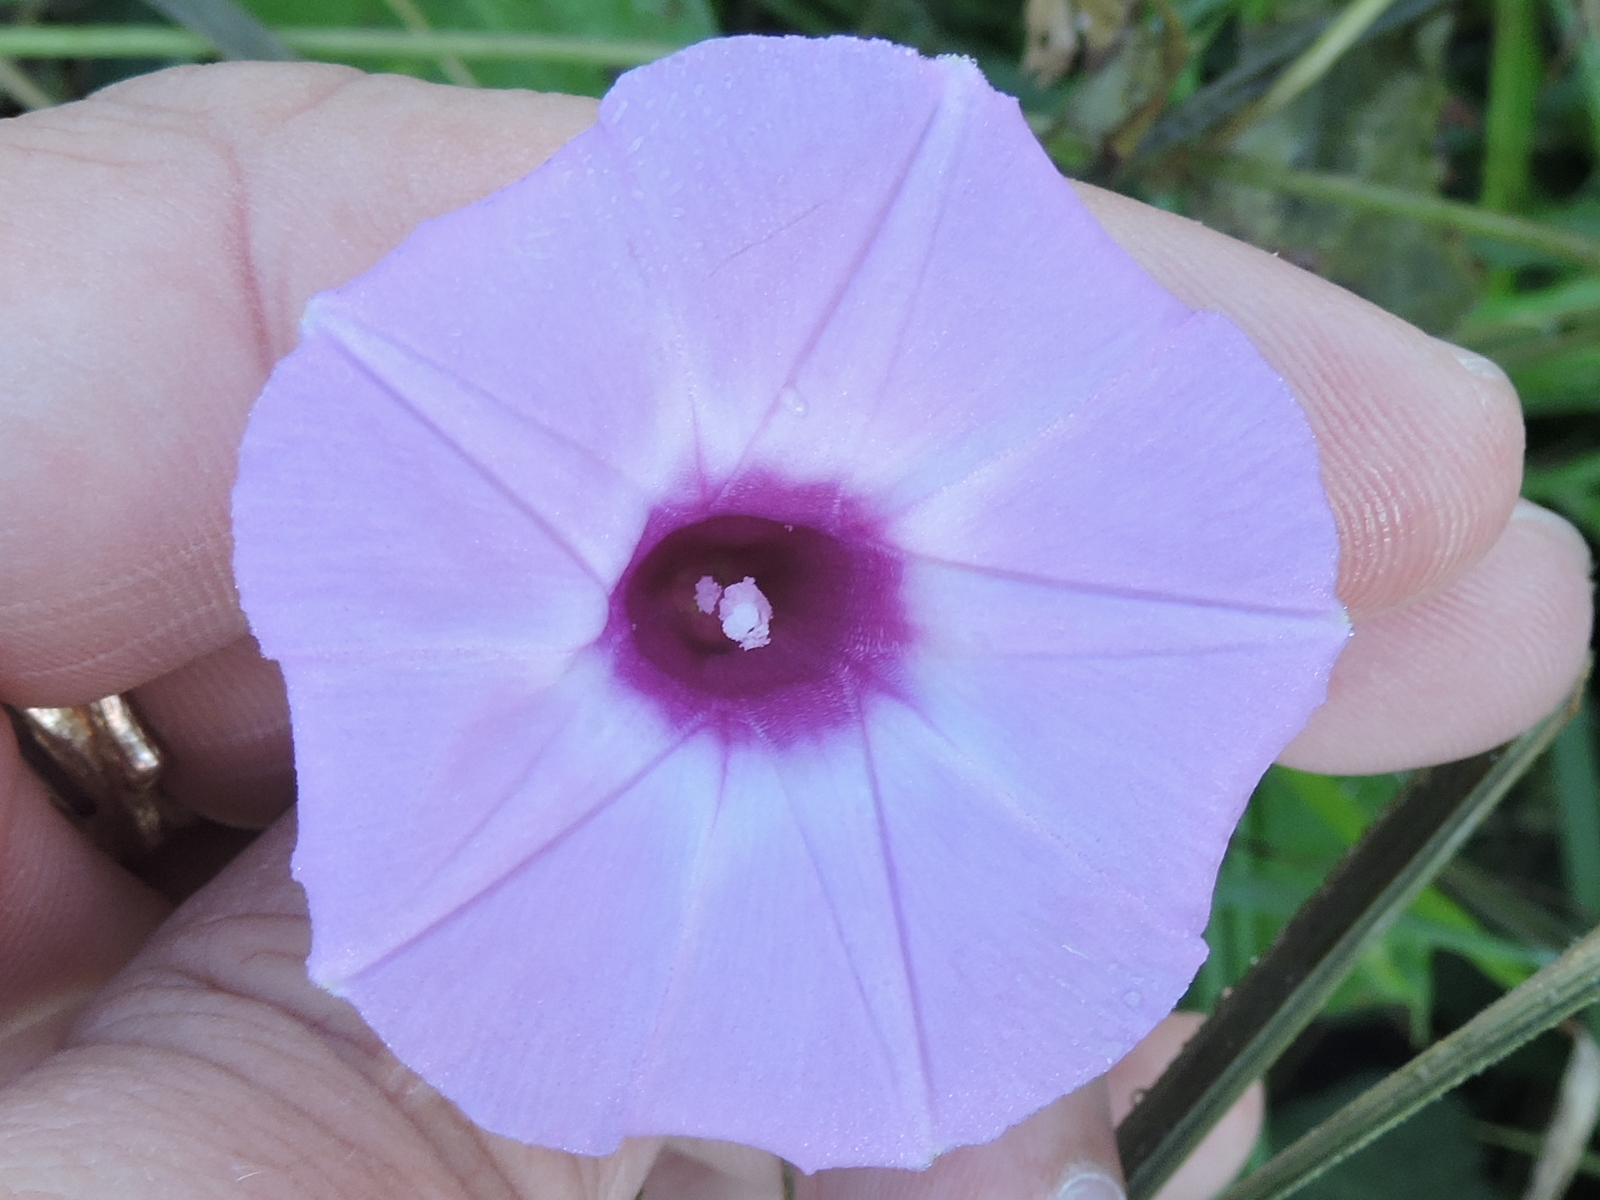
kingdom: Plantae
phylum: Tracheophyta
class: Magnoliopsida
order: Solanales
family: Convolvulaceae
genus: Ipomoea
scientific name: Ipomoea cordatotriloba
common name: Cotton morning glory
